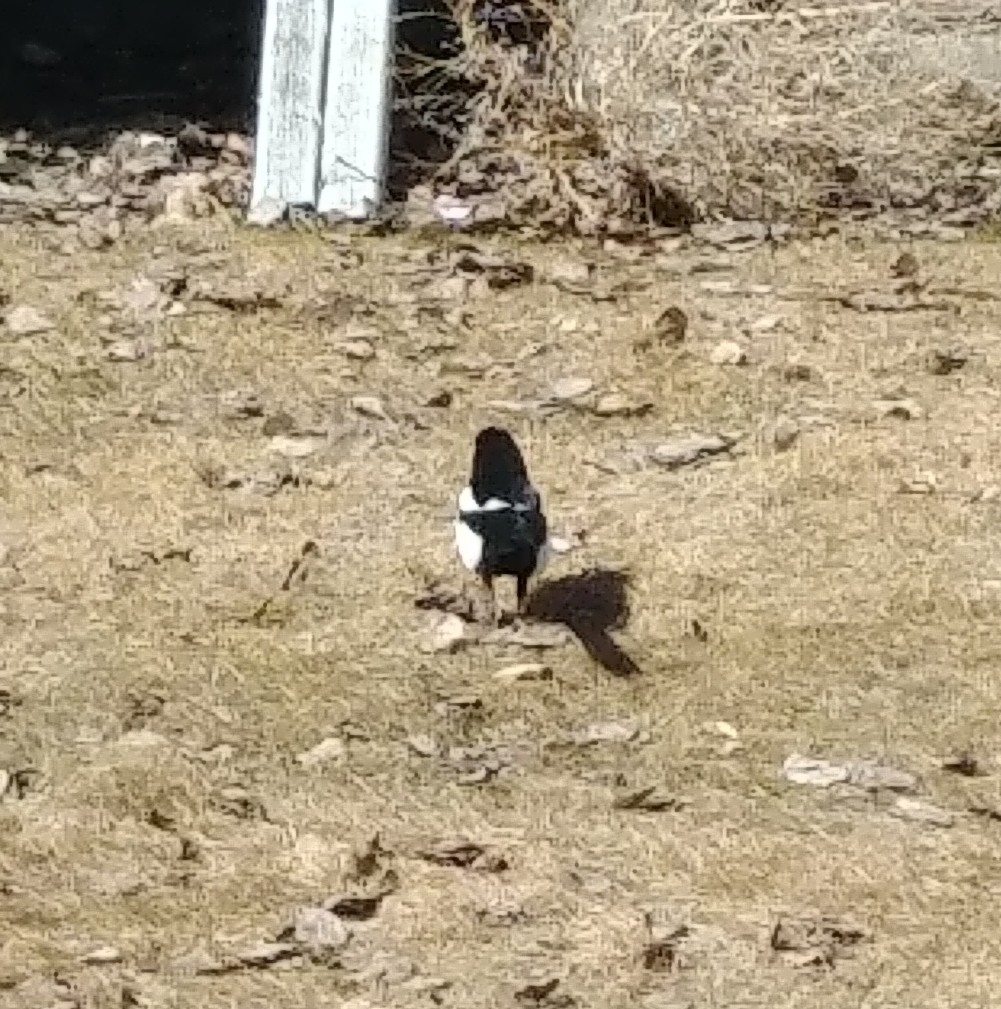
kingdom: Animalia
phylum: Chordata
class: Aves
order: Passeriformes
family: Corvidae
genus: Pica
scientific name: Pica hudsonia
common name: Black-billed magpie
